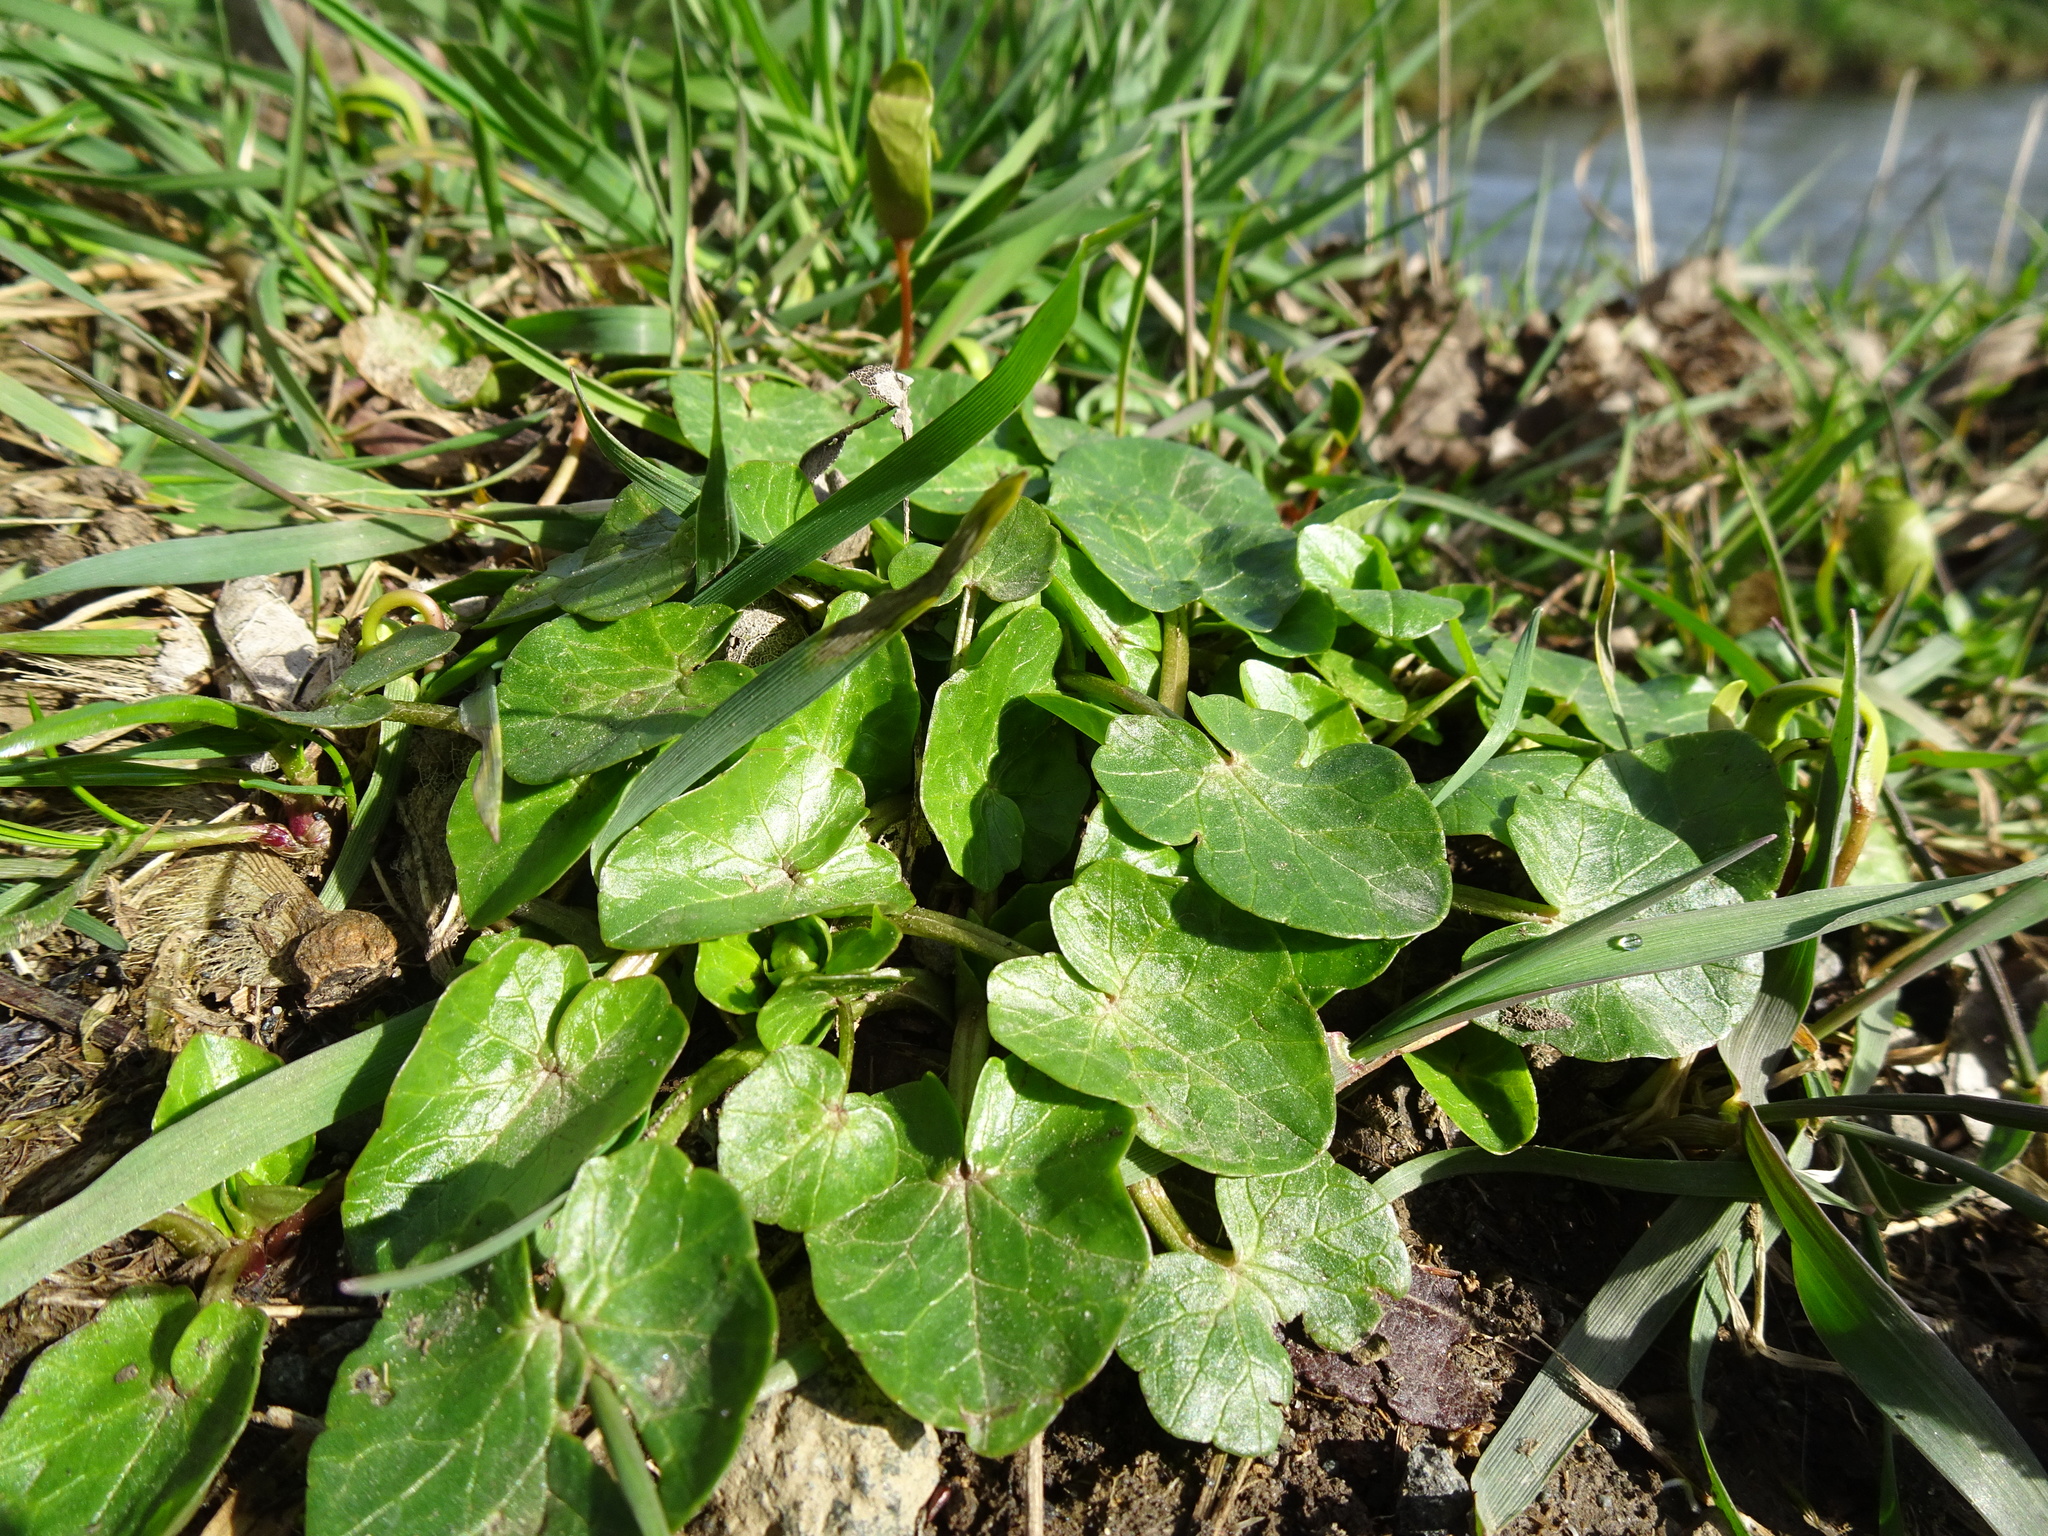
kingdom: Plantae
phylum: Tracheophyta
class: Magnoliopsida
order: Ranunculales
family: Ranunculaceae
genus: Ficaria
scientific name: Ficaria verna
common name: Lesser celandine
